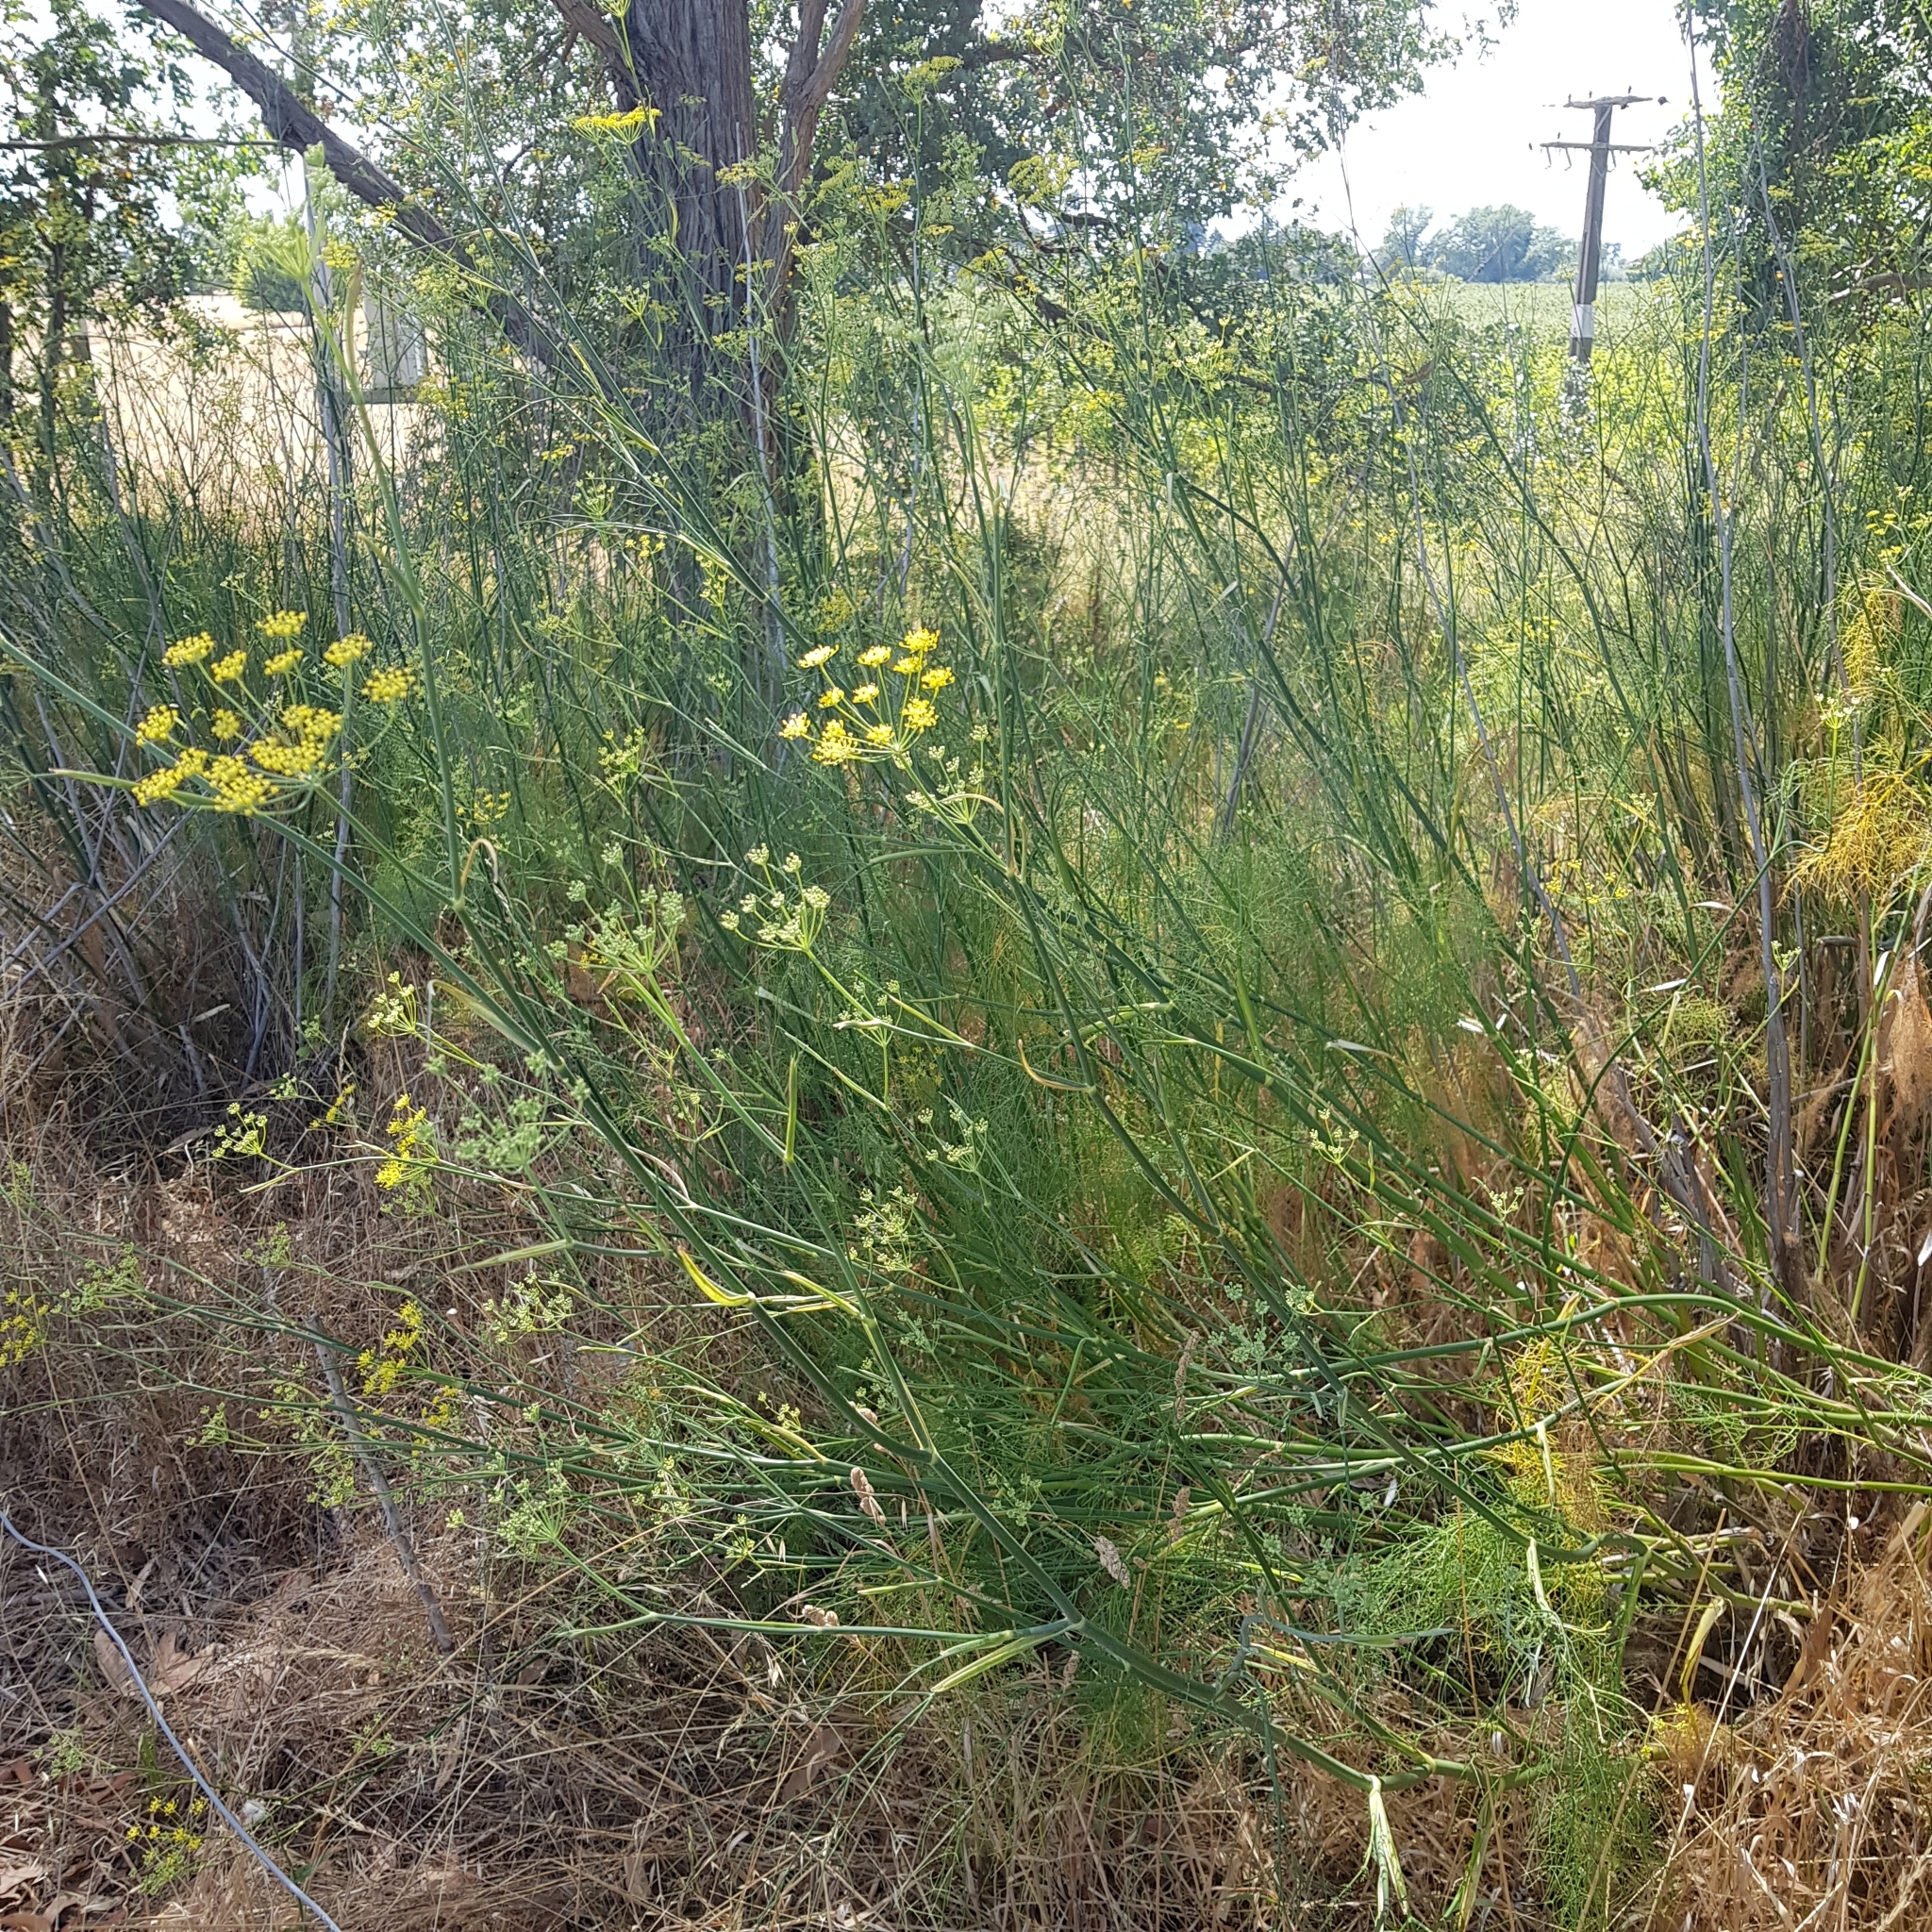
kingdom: Plantae
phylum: Tracheophyta
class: Magnoliopsida
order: Apiales
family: Apiaceae
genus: Foeniculum
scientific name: Foeniculum vulgare
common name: Fennel
